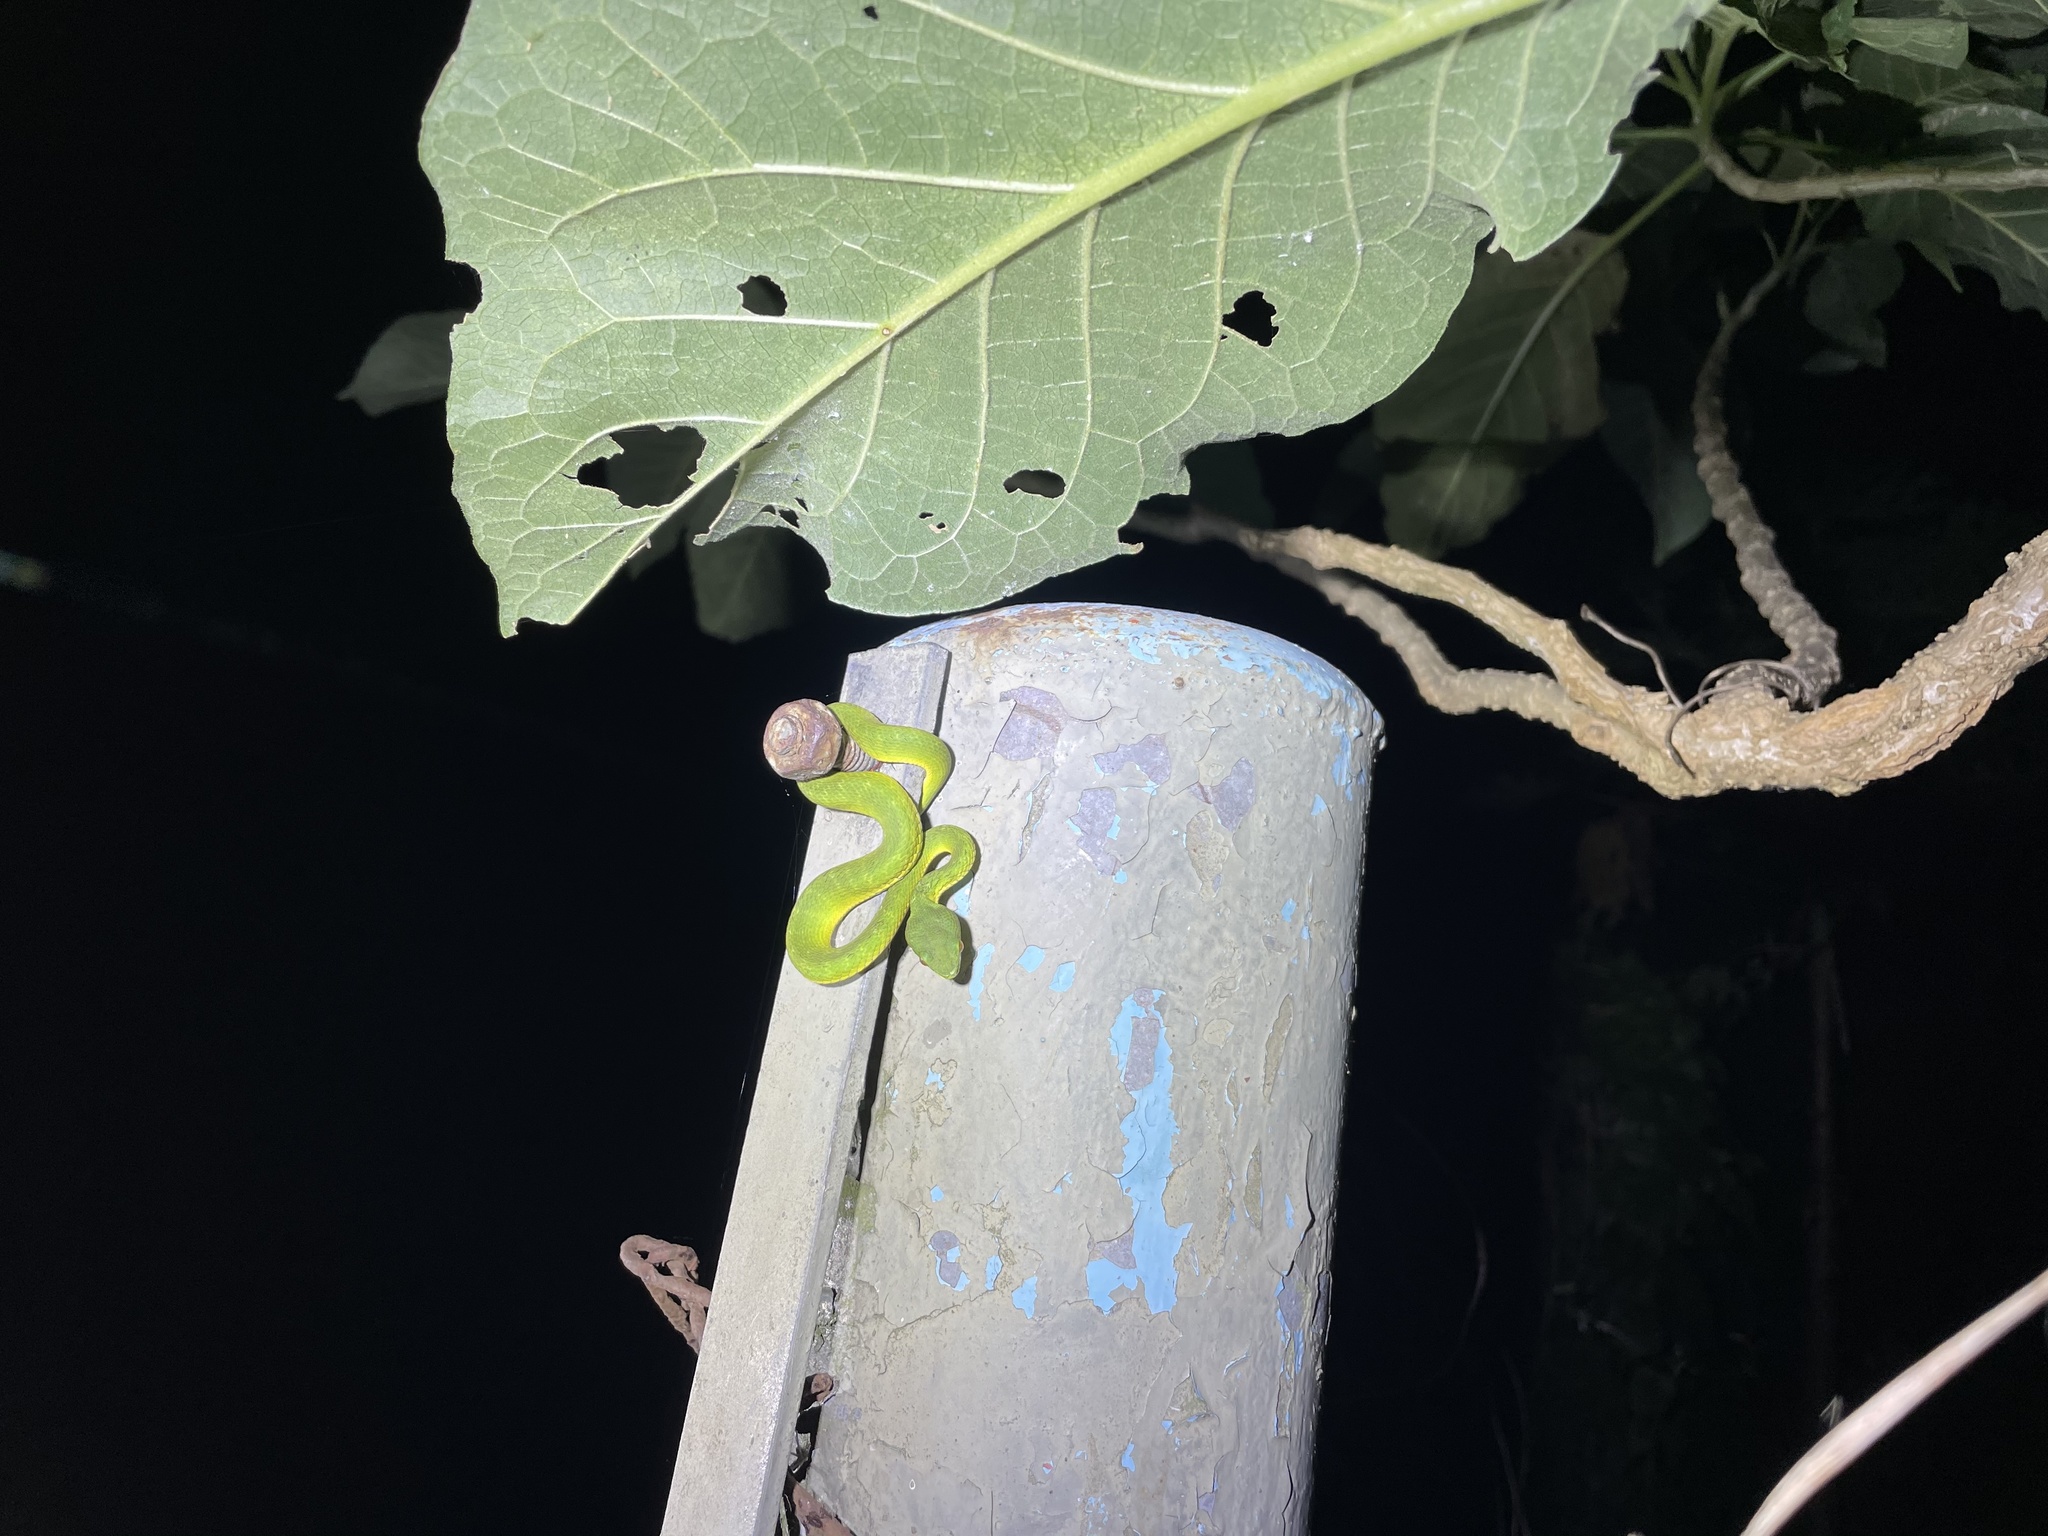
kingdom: Animalia
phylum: Chordata
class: Squamata
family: Viperidae
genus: Trimeresurus
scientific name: Trimeresurus albolabris
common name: White-lipped pitviper
